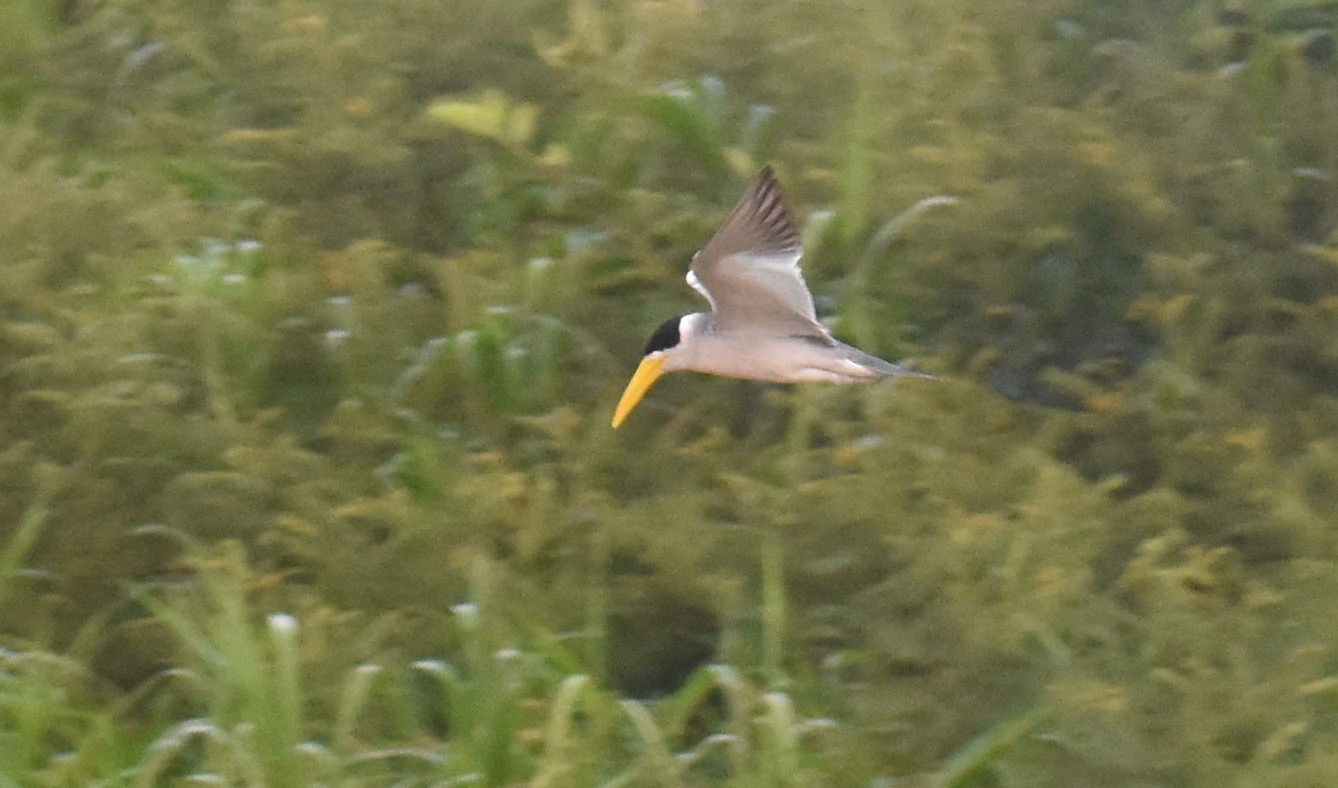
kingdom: Animalia
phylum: Chordata
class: Aves
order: Charadriiformes
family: Laridae
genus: Phaetusa
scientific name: Phaetusa simplex
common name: Large-billed tern
